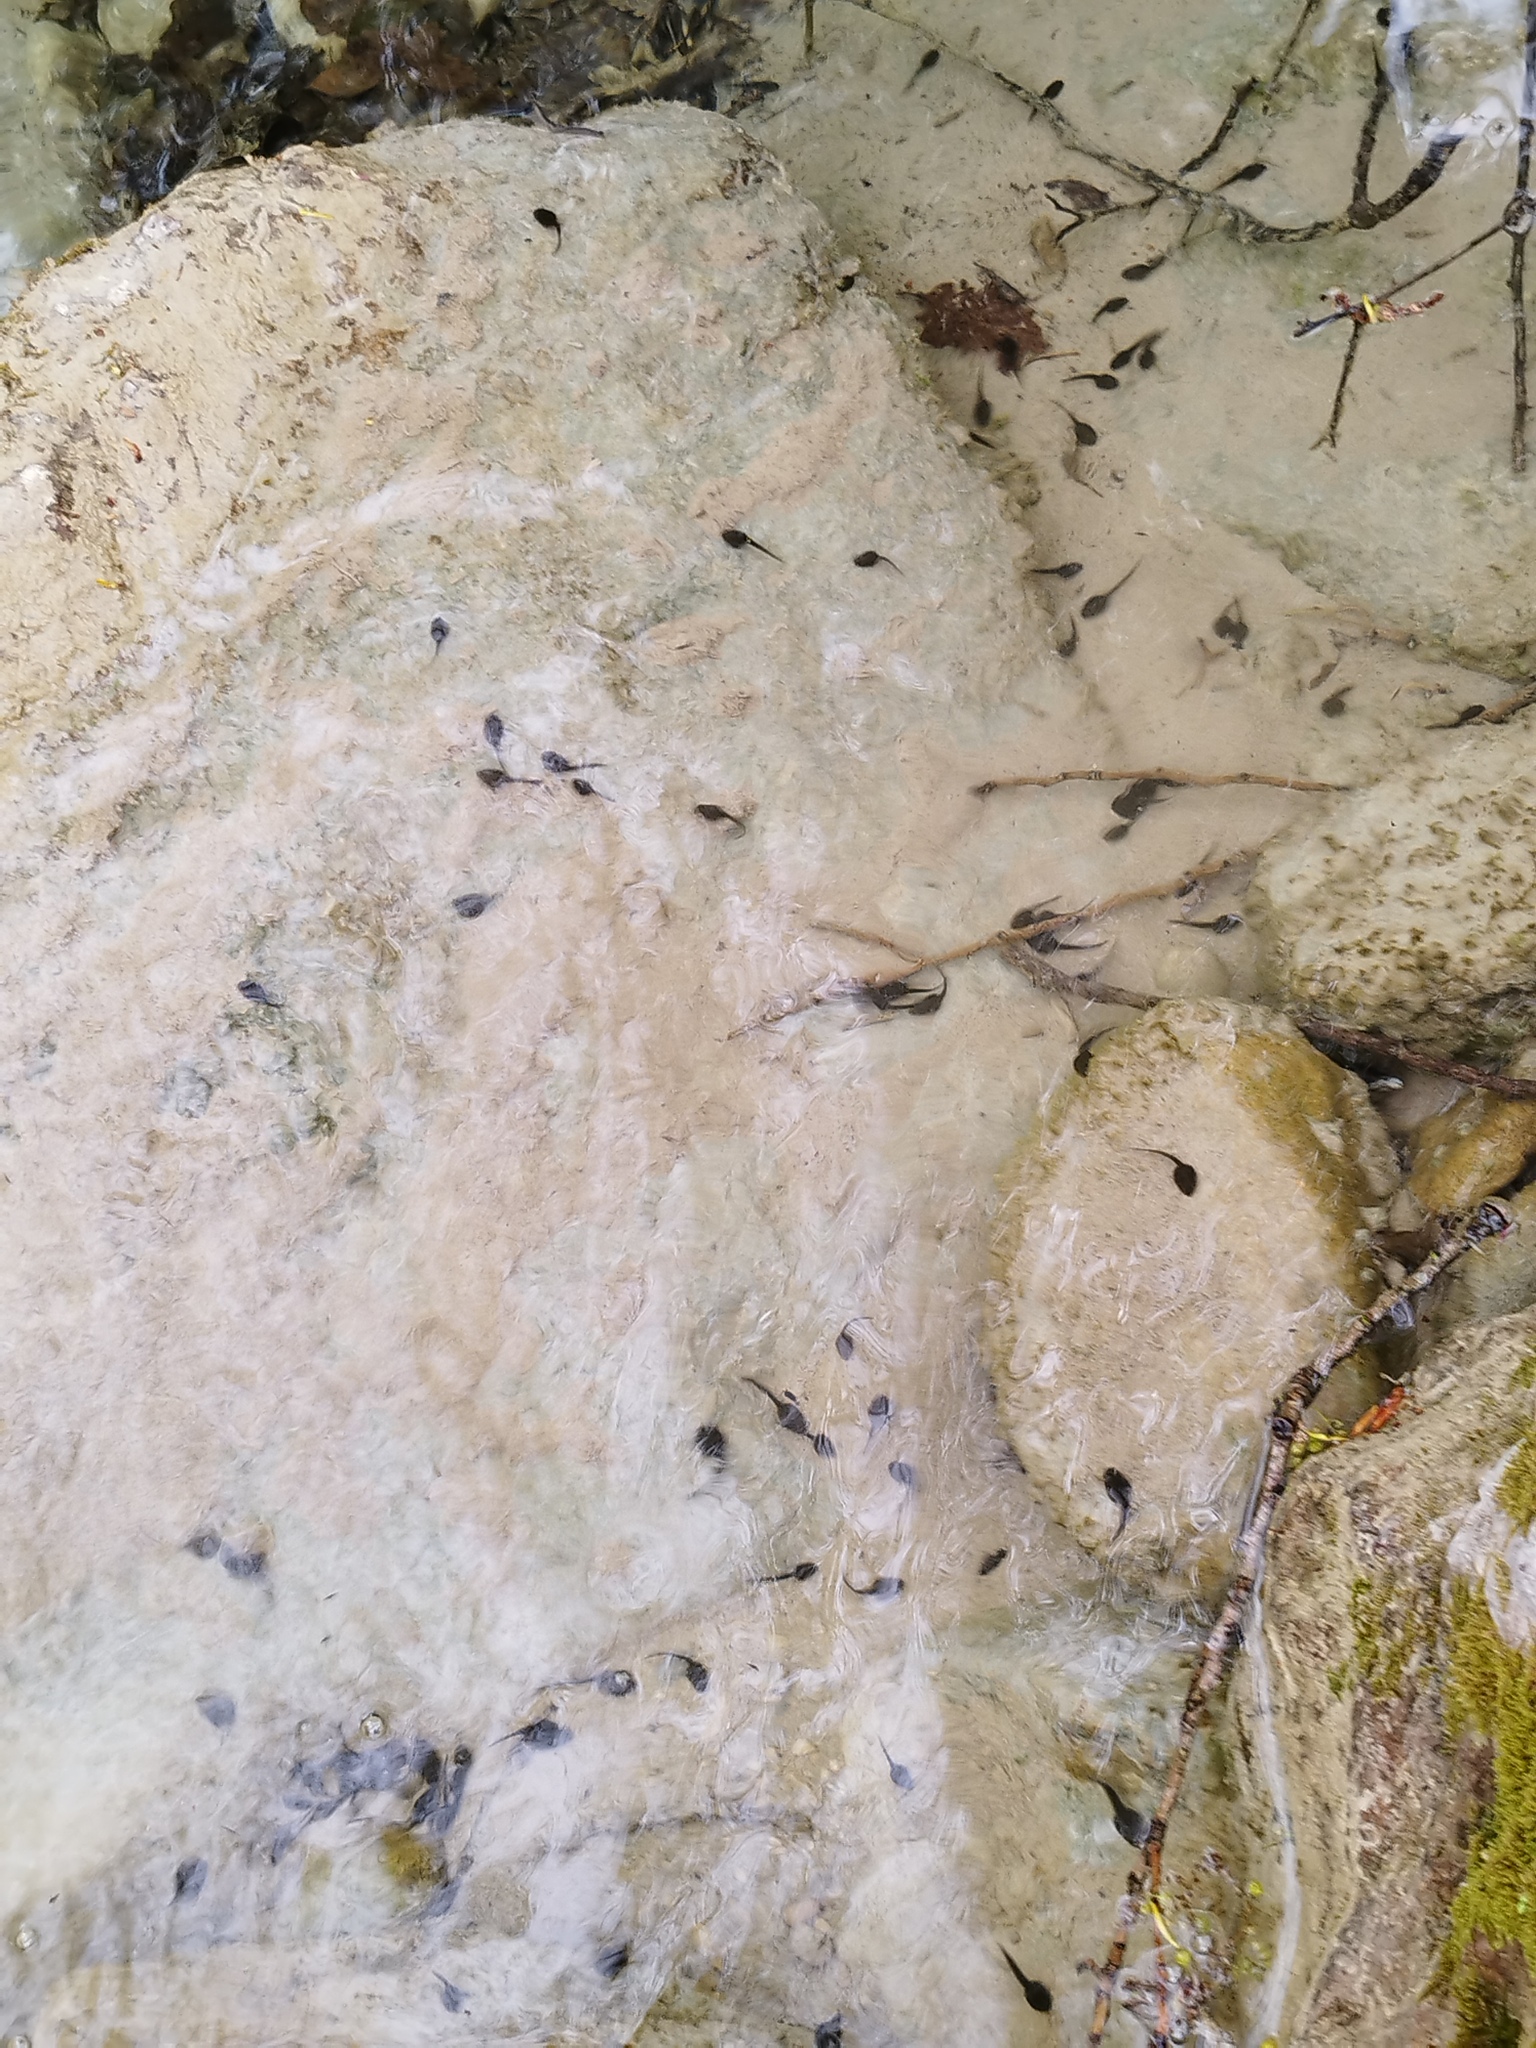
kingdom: Animalia
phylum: Chordata
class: Amphibia
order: Anura
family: Ranidae
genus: Rana
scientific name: Rana italica
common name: Italian stream frog
